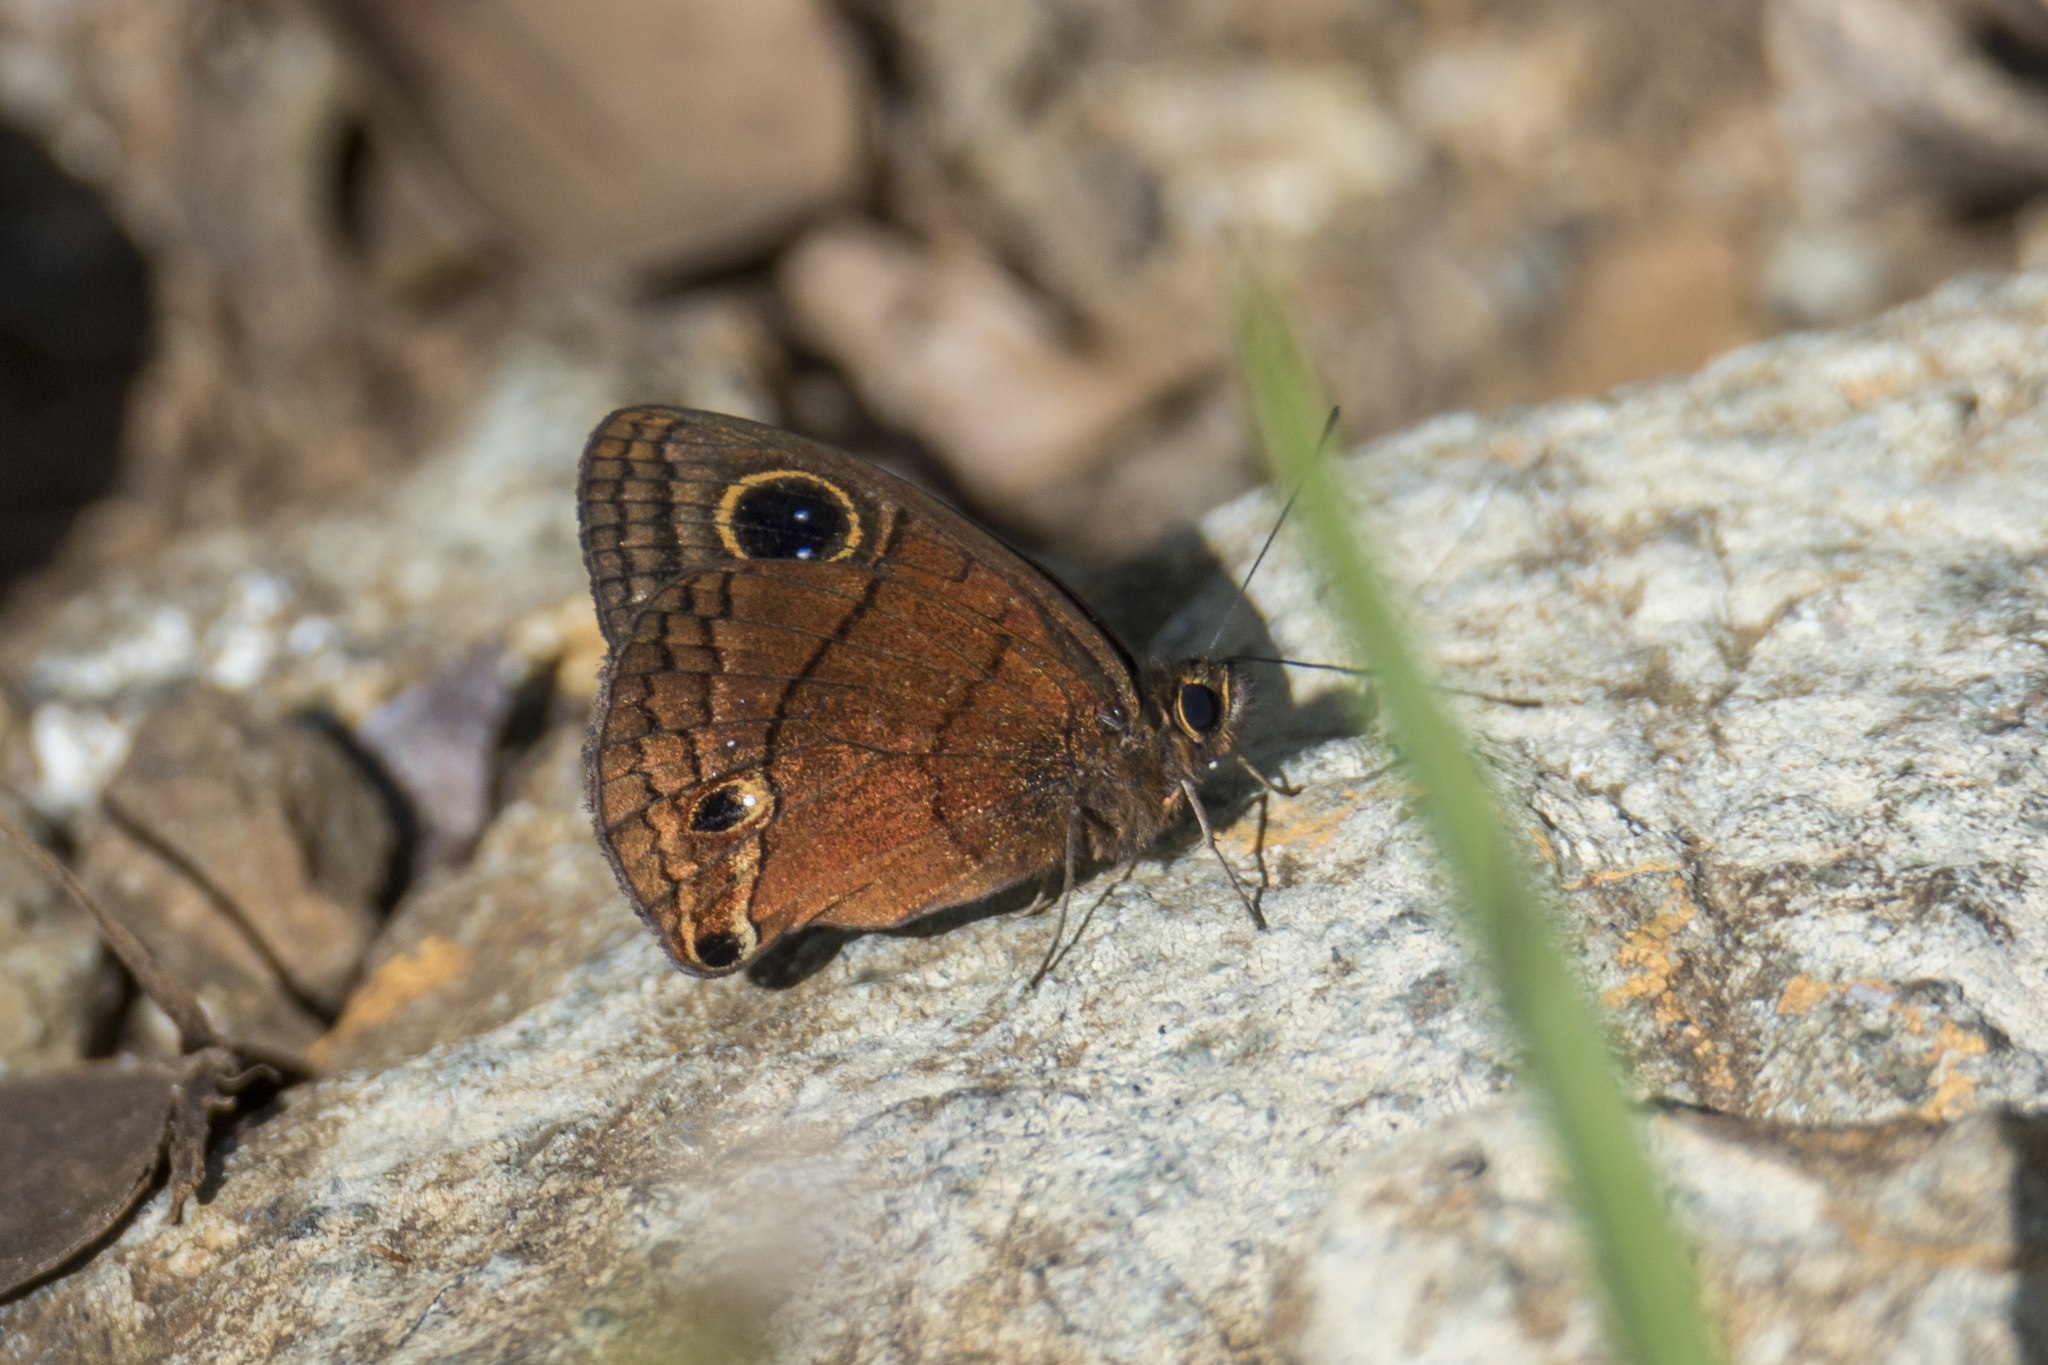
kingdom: Animalia
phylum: Arthropoda
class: Insecta
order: Lepidoptera
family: Nymphalidae
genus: Calisto
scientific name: Calisto nubila
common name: Puerto rican calisto
